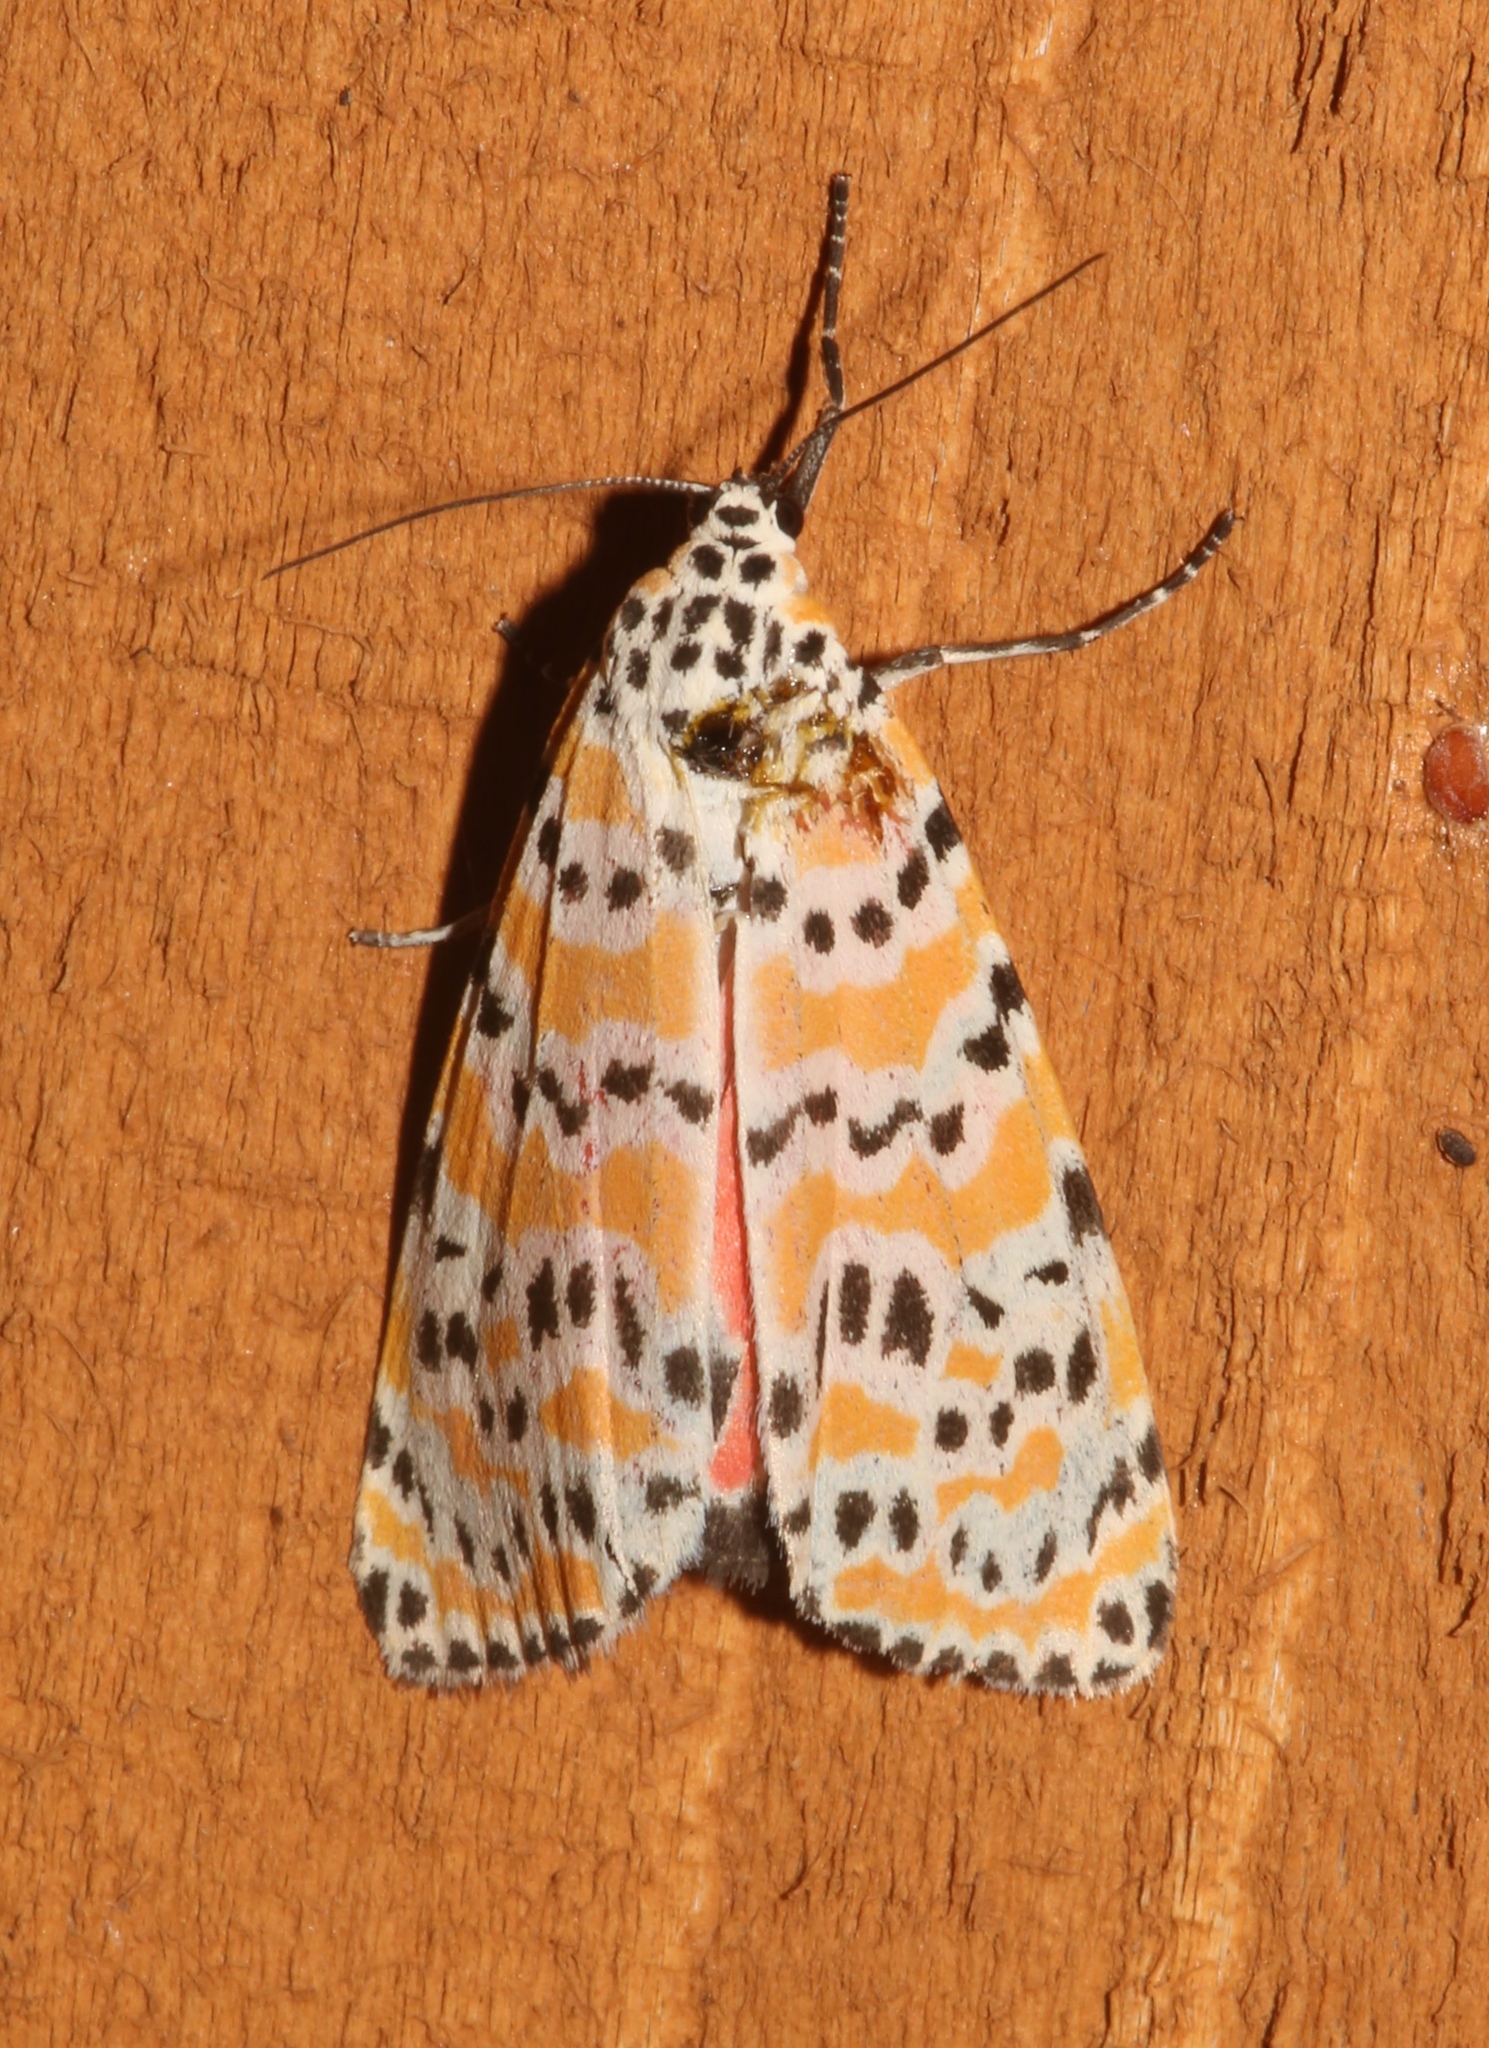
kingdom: Animalia
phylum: Arthropoda
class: Insecta
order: Lepidoptera
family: Erebidae
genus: Utetheisa
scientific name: Utetheisa ornatrix
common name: Beautiful utetheisa
